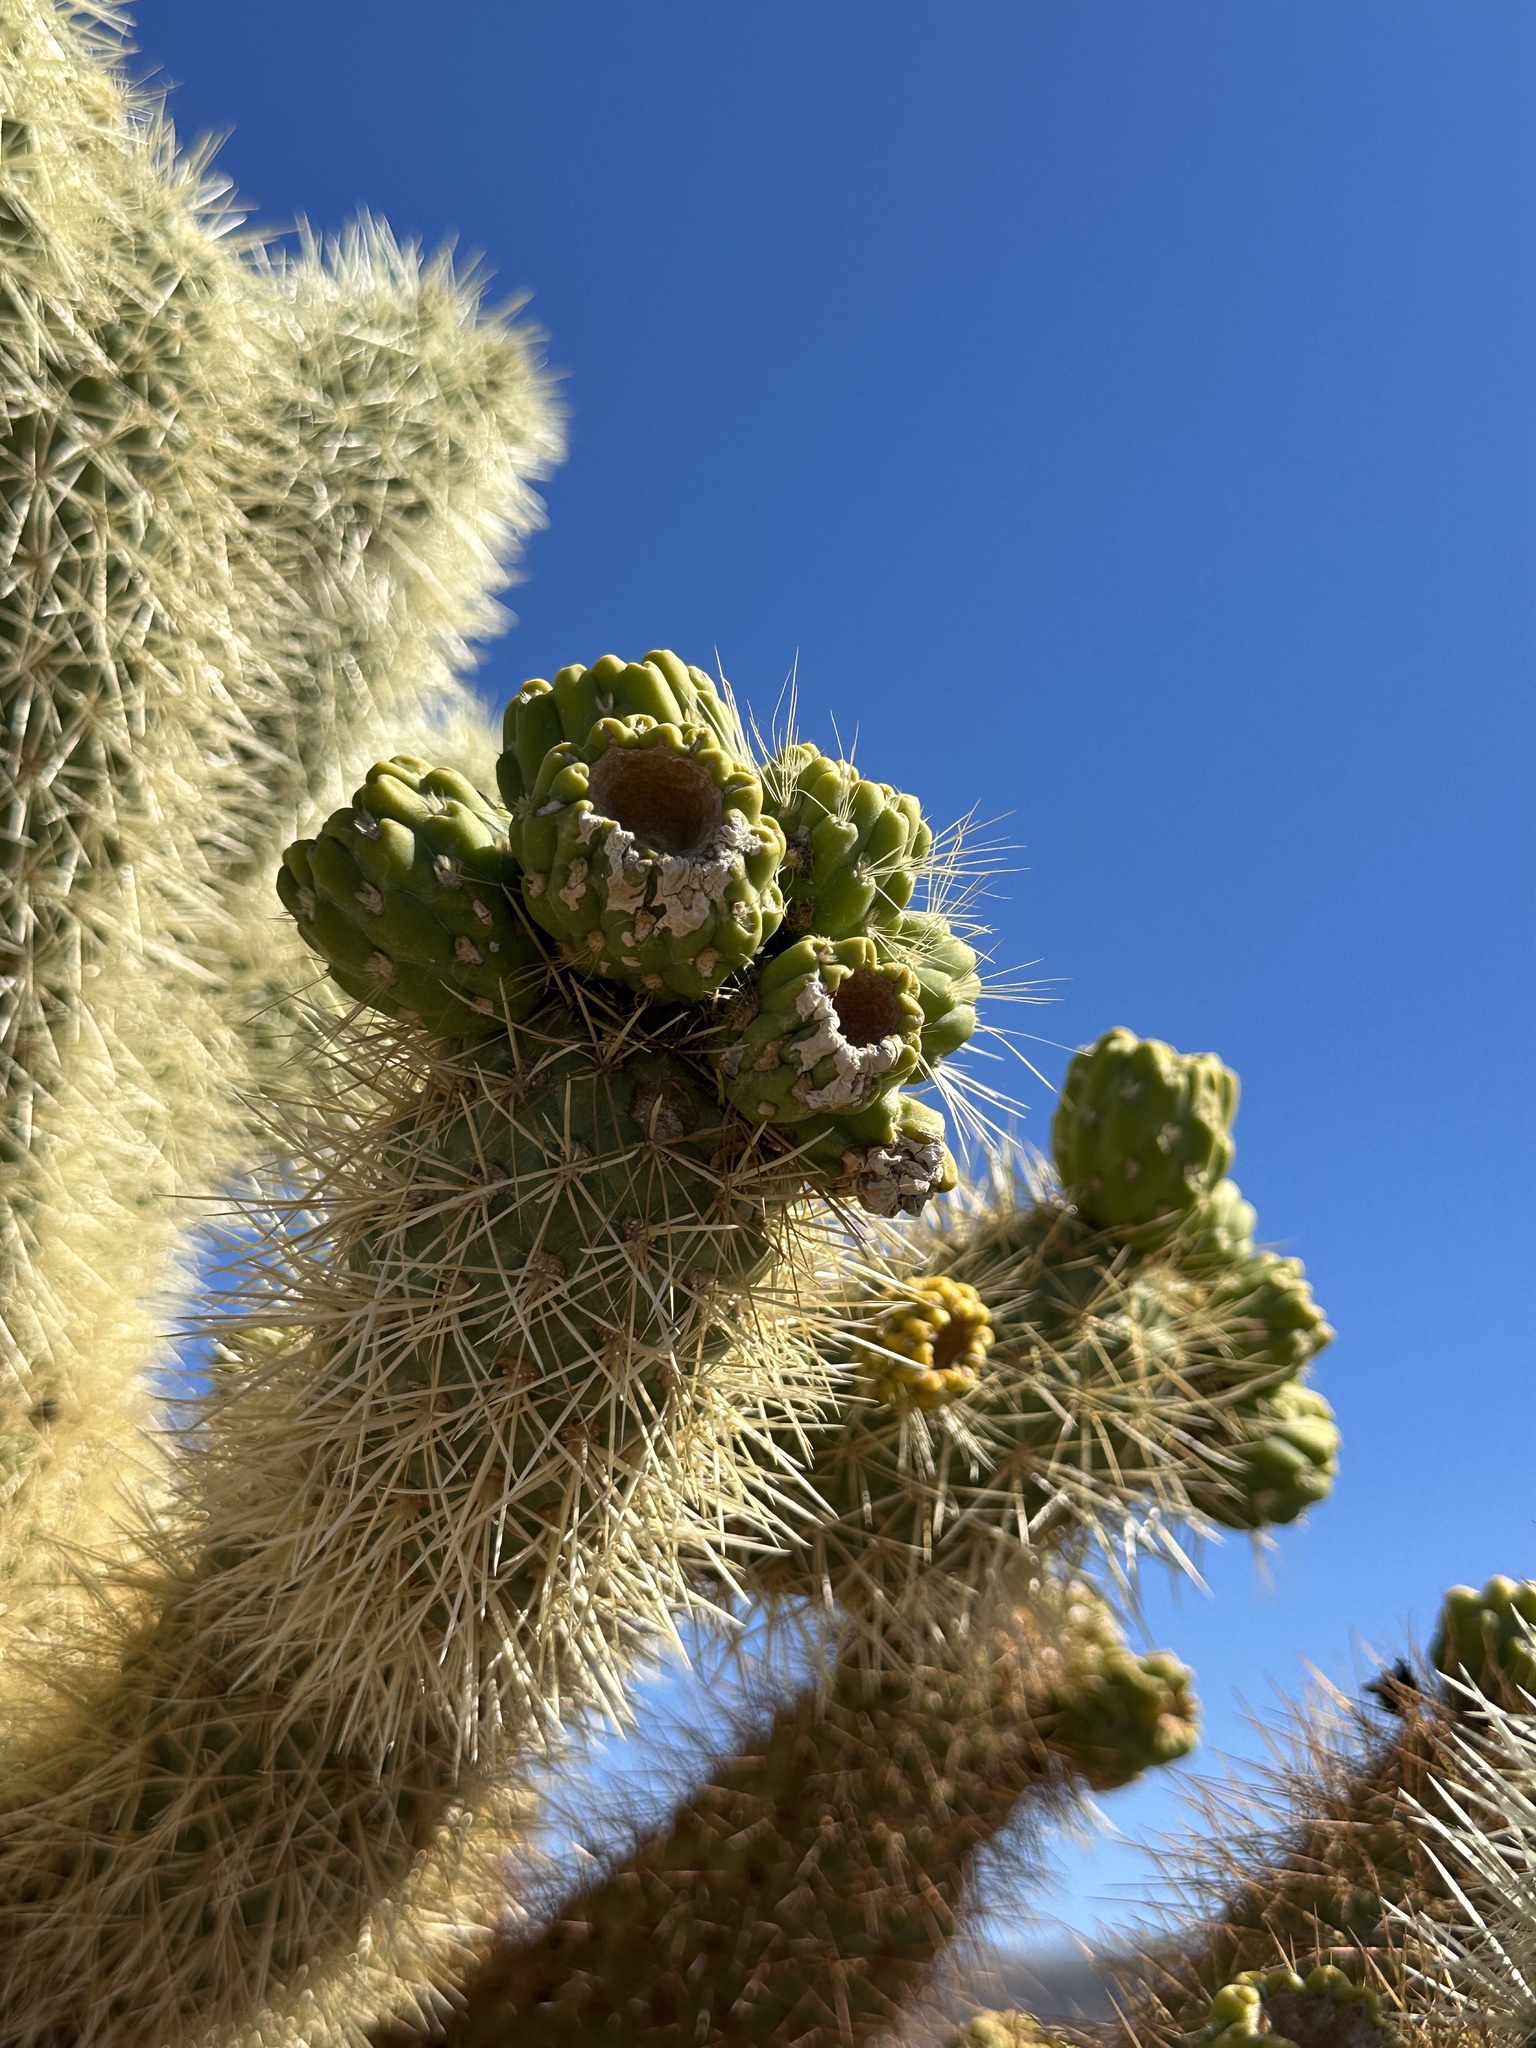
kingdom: Plantae
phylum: Tracheophyta
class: Magnoliopsida
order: Caryophyllales
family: Cactaceae
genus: Cylindropuntia
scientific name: Cylindropuntia fosbergii
